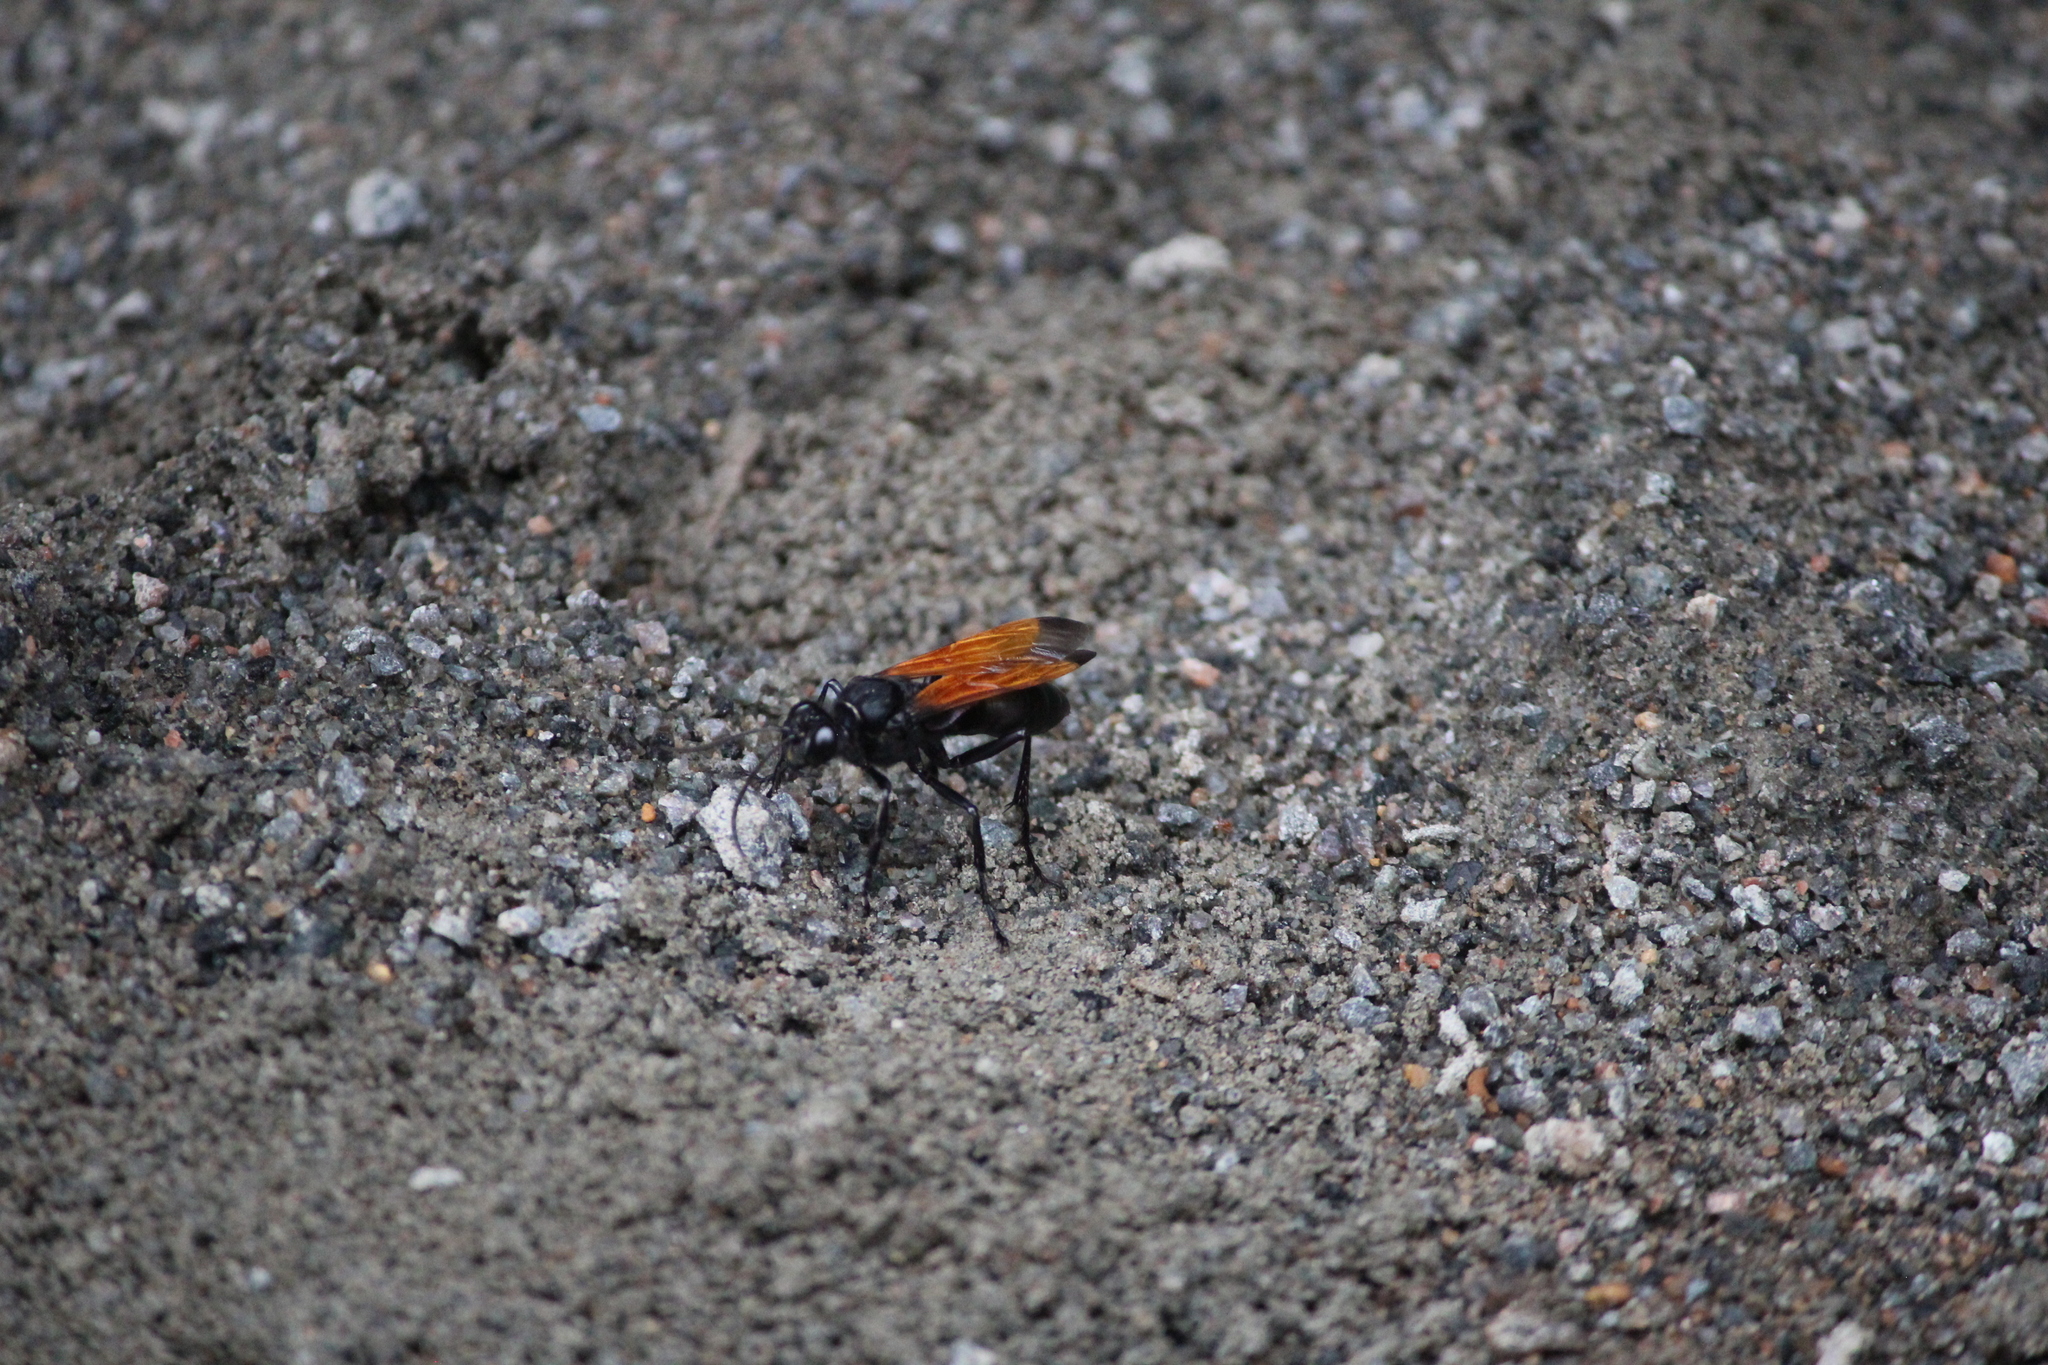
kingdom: Animalia
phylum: Arthropoda
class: Insecta
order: Hymenoptera
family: Sphecidae
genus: Sphex
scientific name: Sphex praedator
